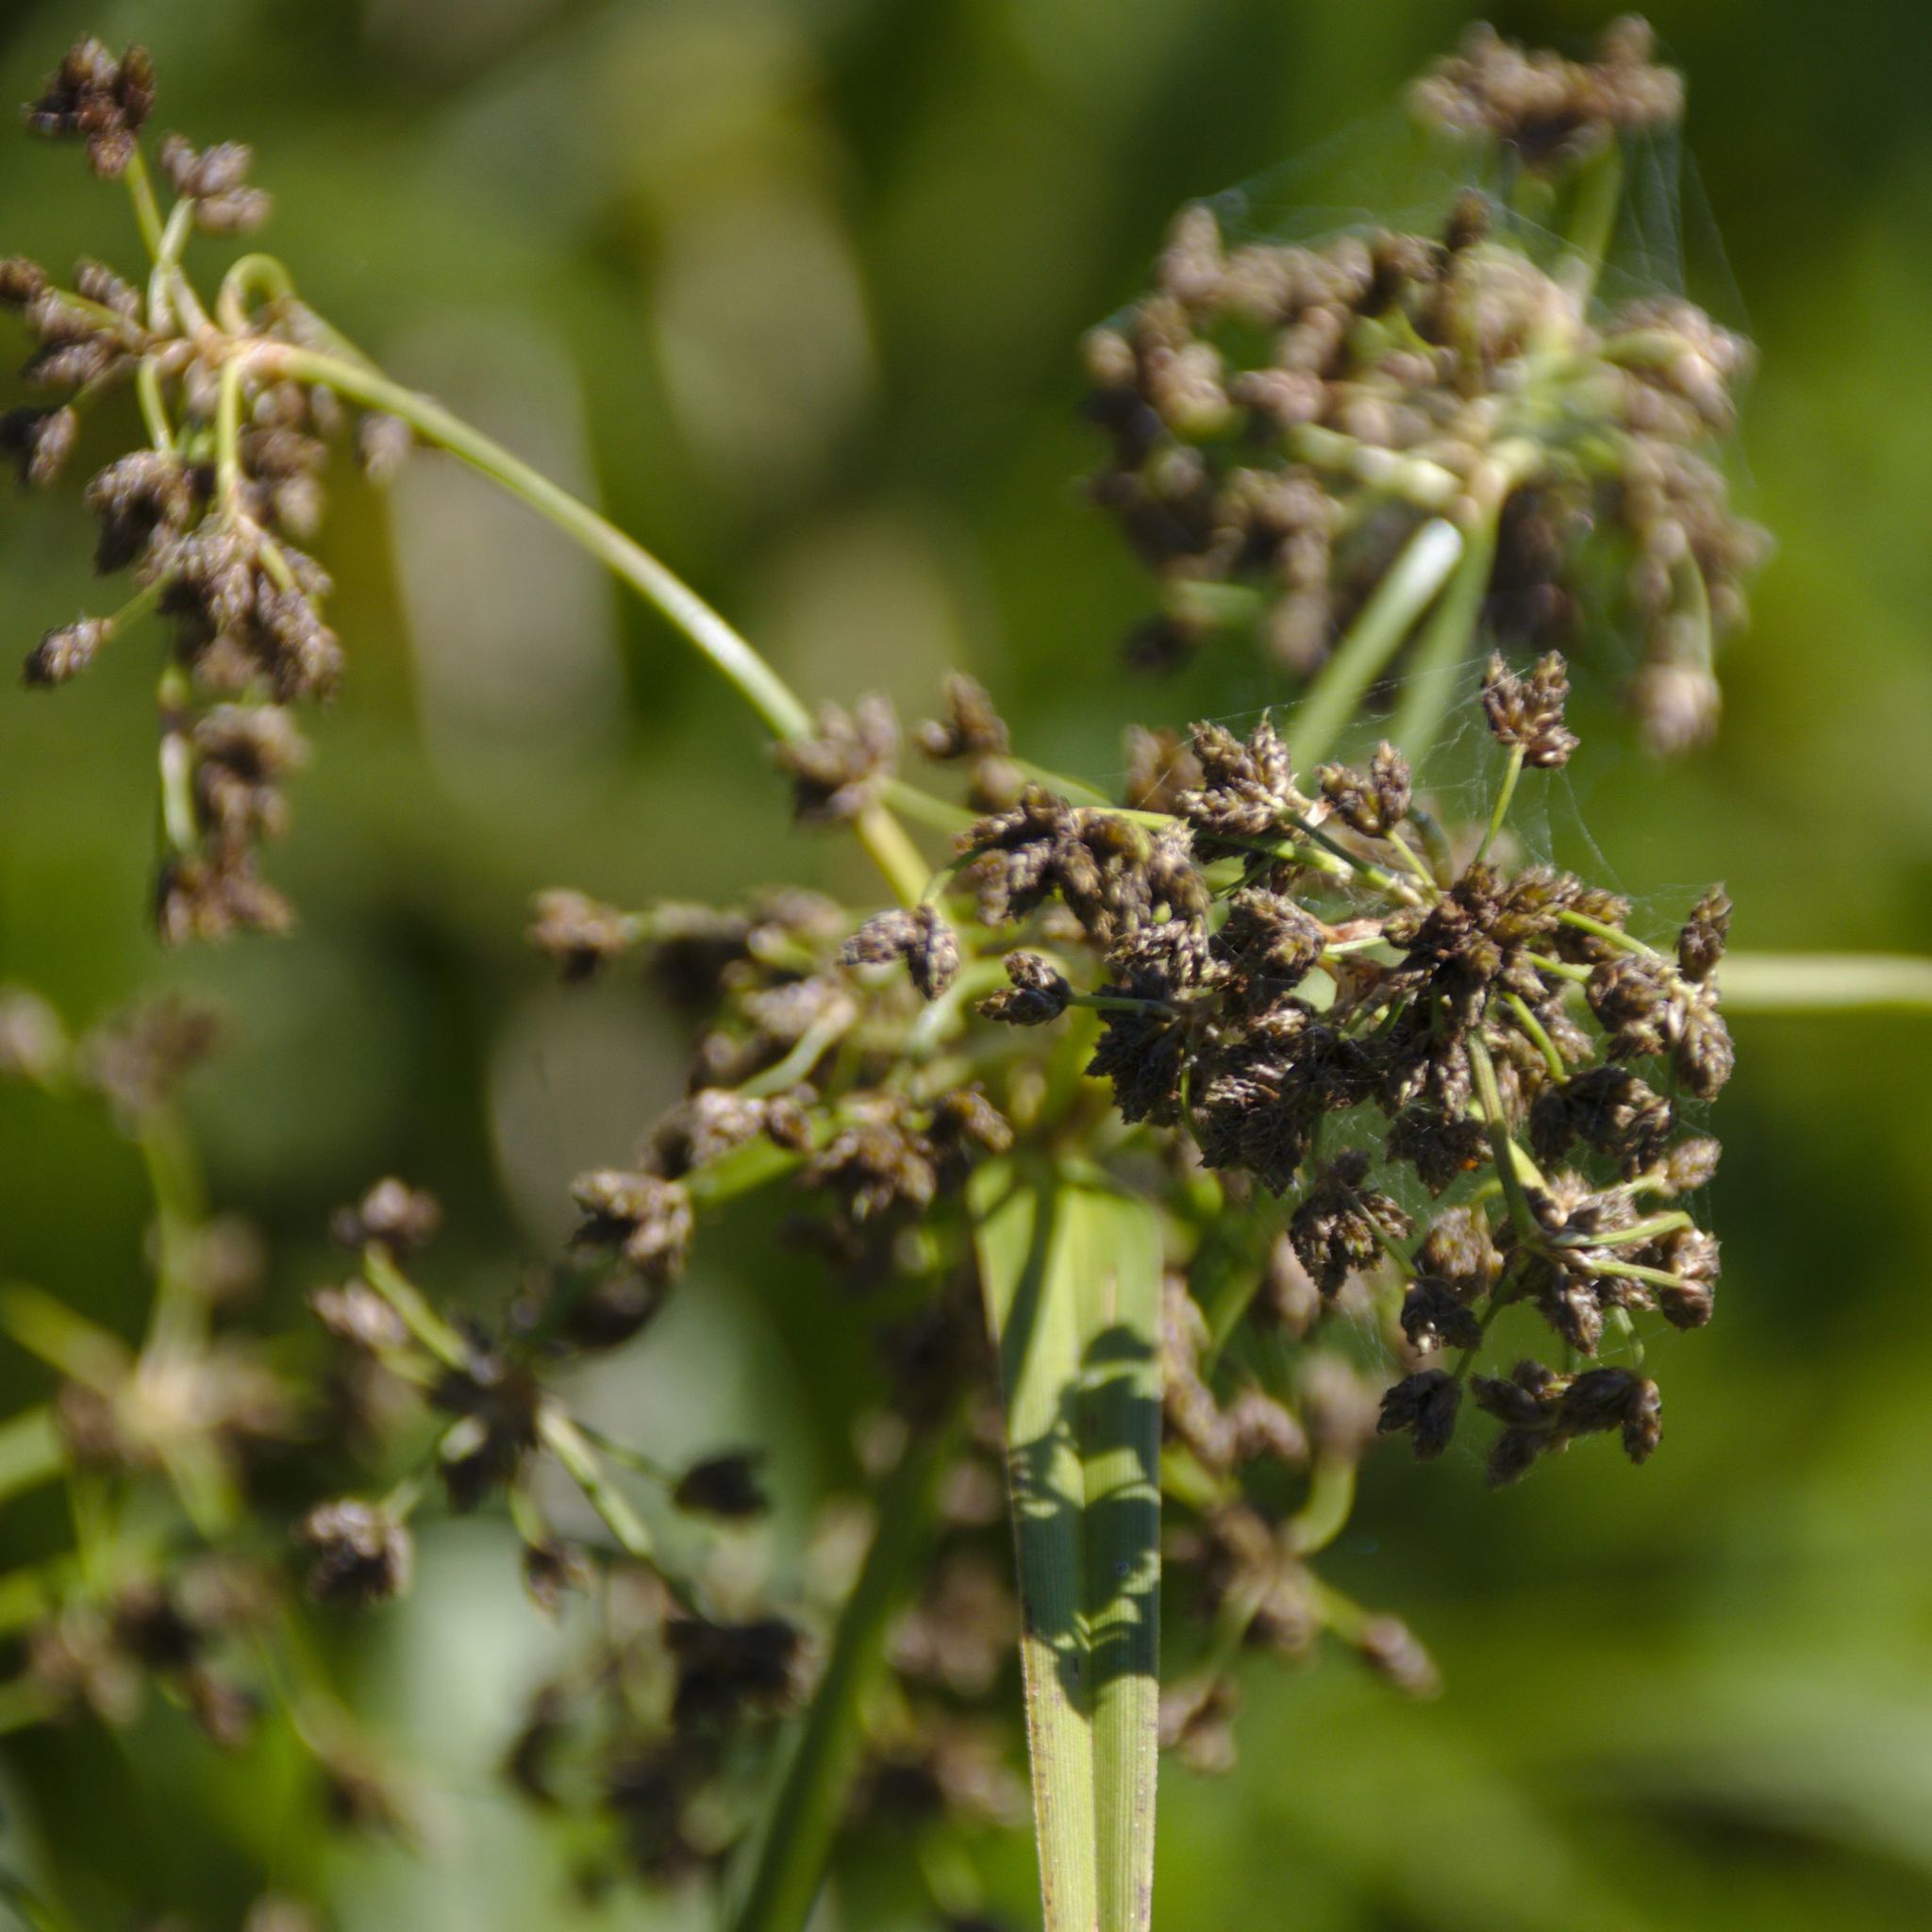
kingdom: Plantae
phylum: Tracheophyta
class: Liliopsida
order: Poales
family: Cyperaceae
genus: Scirpus
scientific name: Scirpus sylvaticus
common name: Wood club-rush
